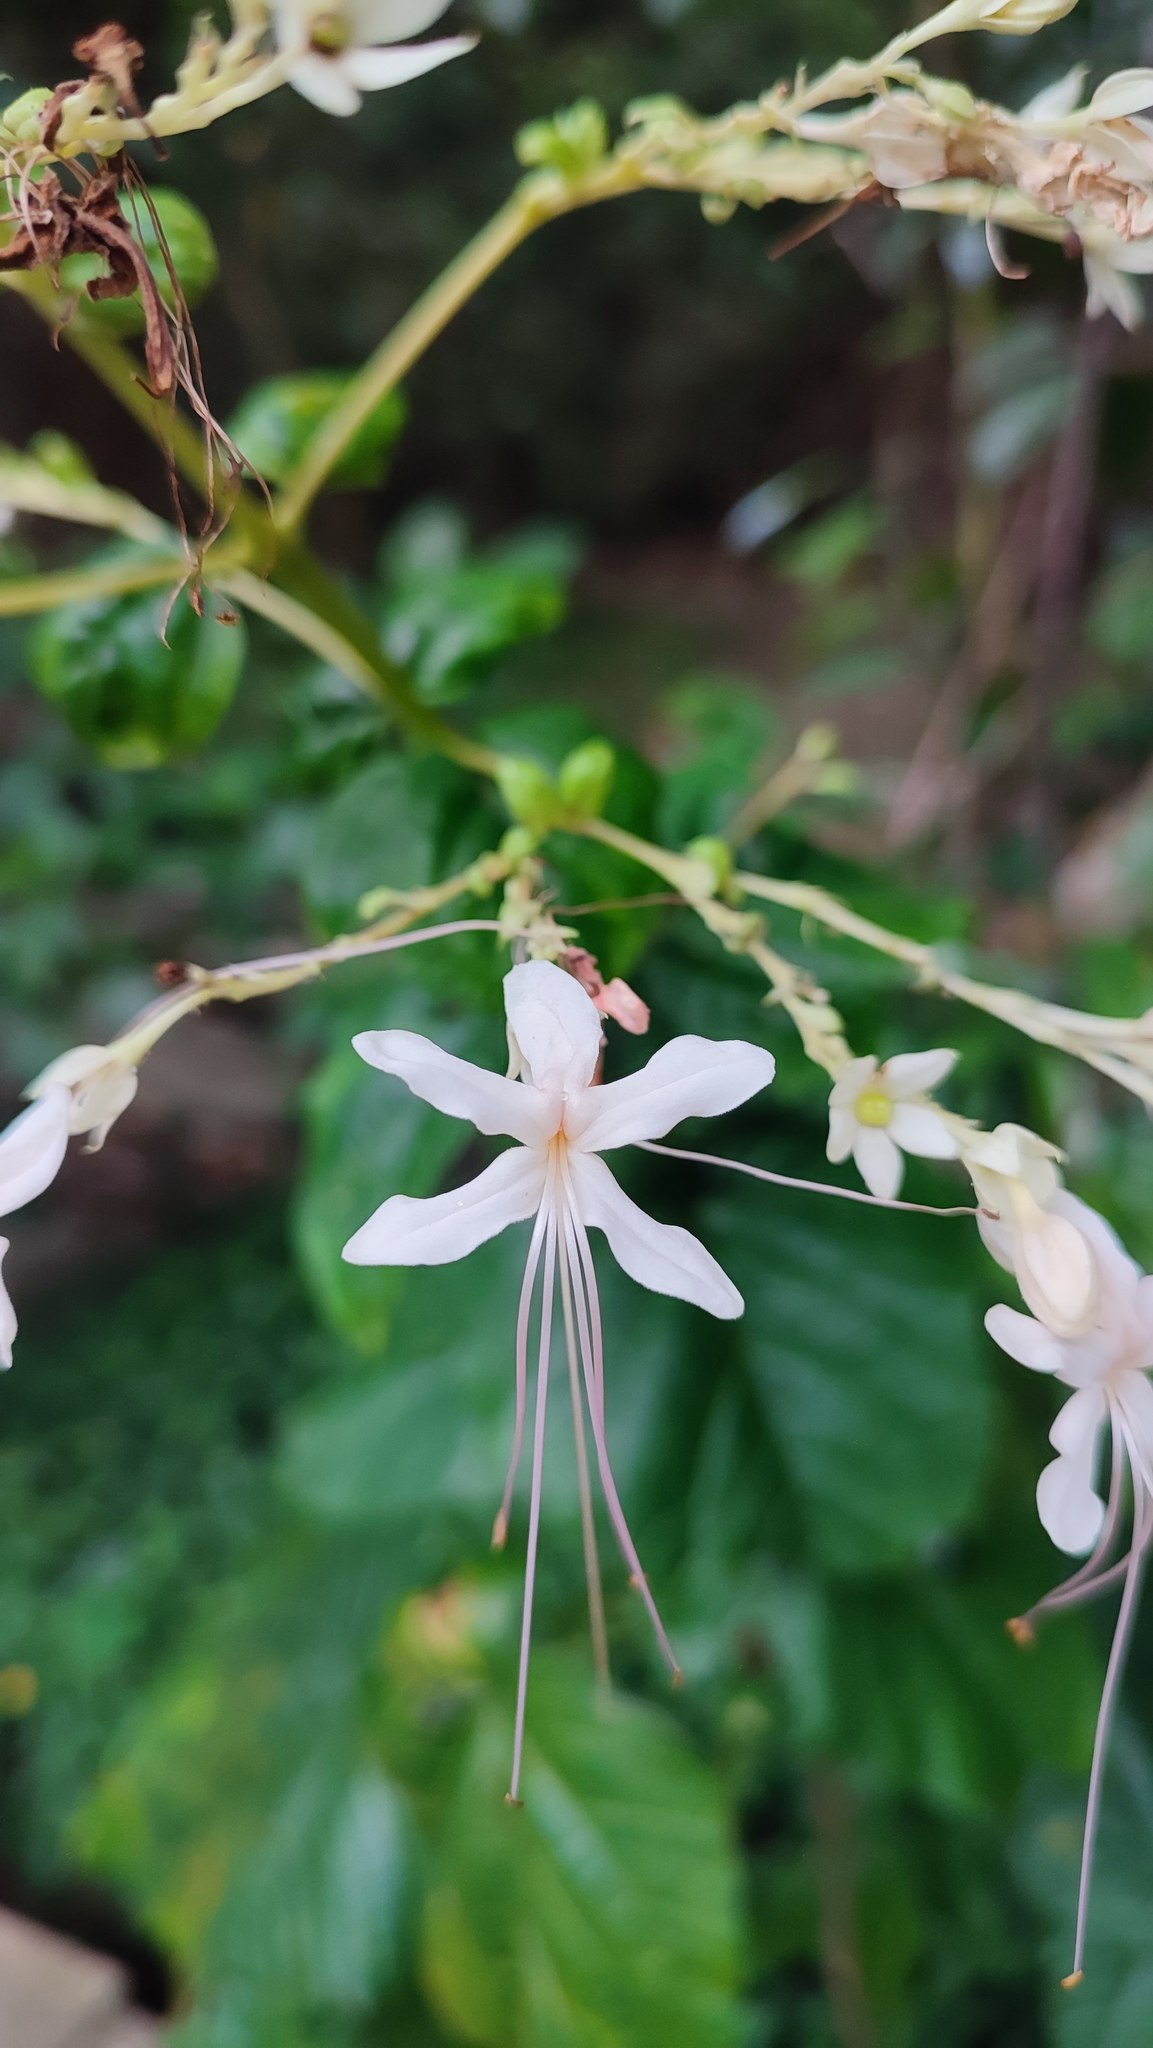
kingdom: Plantae
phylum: Tracheophyta
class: Magnoliopsida
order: Lamiales
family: Lamiaceae
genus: Clerodendrum
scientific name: Clerodendrum japonicum
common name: Japanese glorybower
